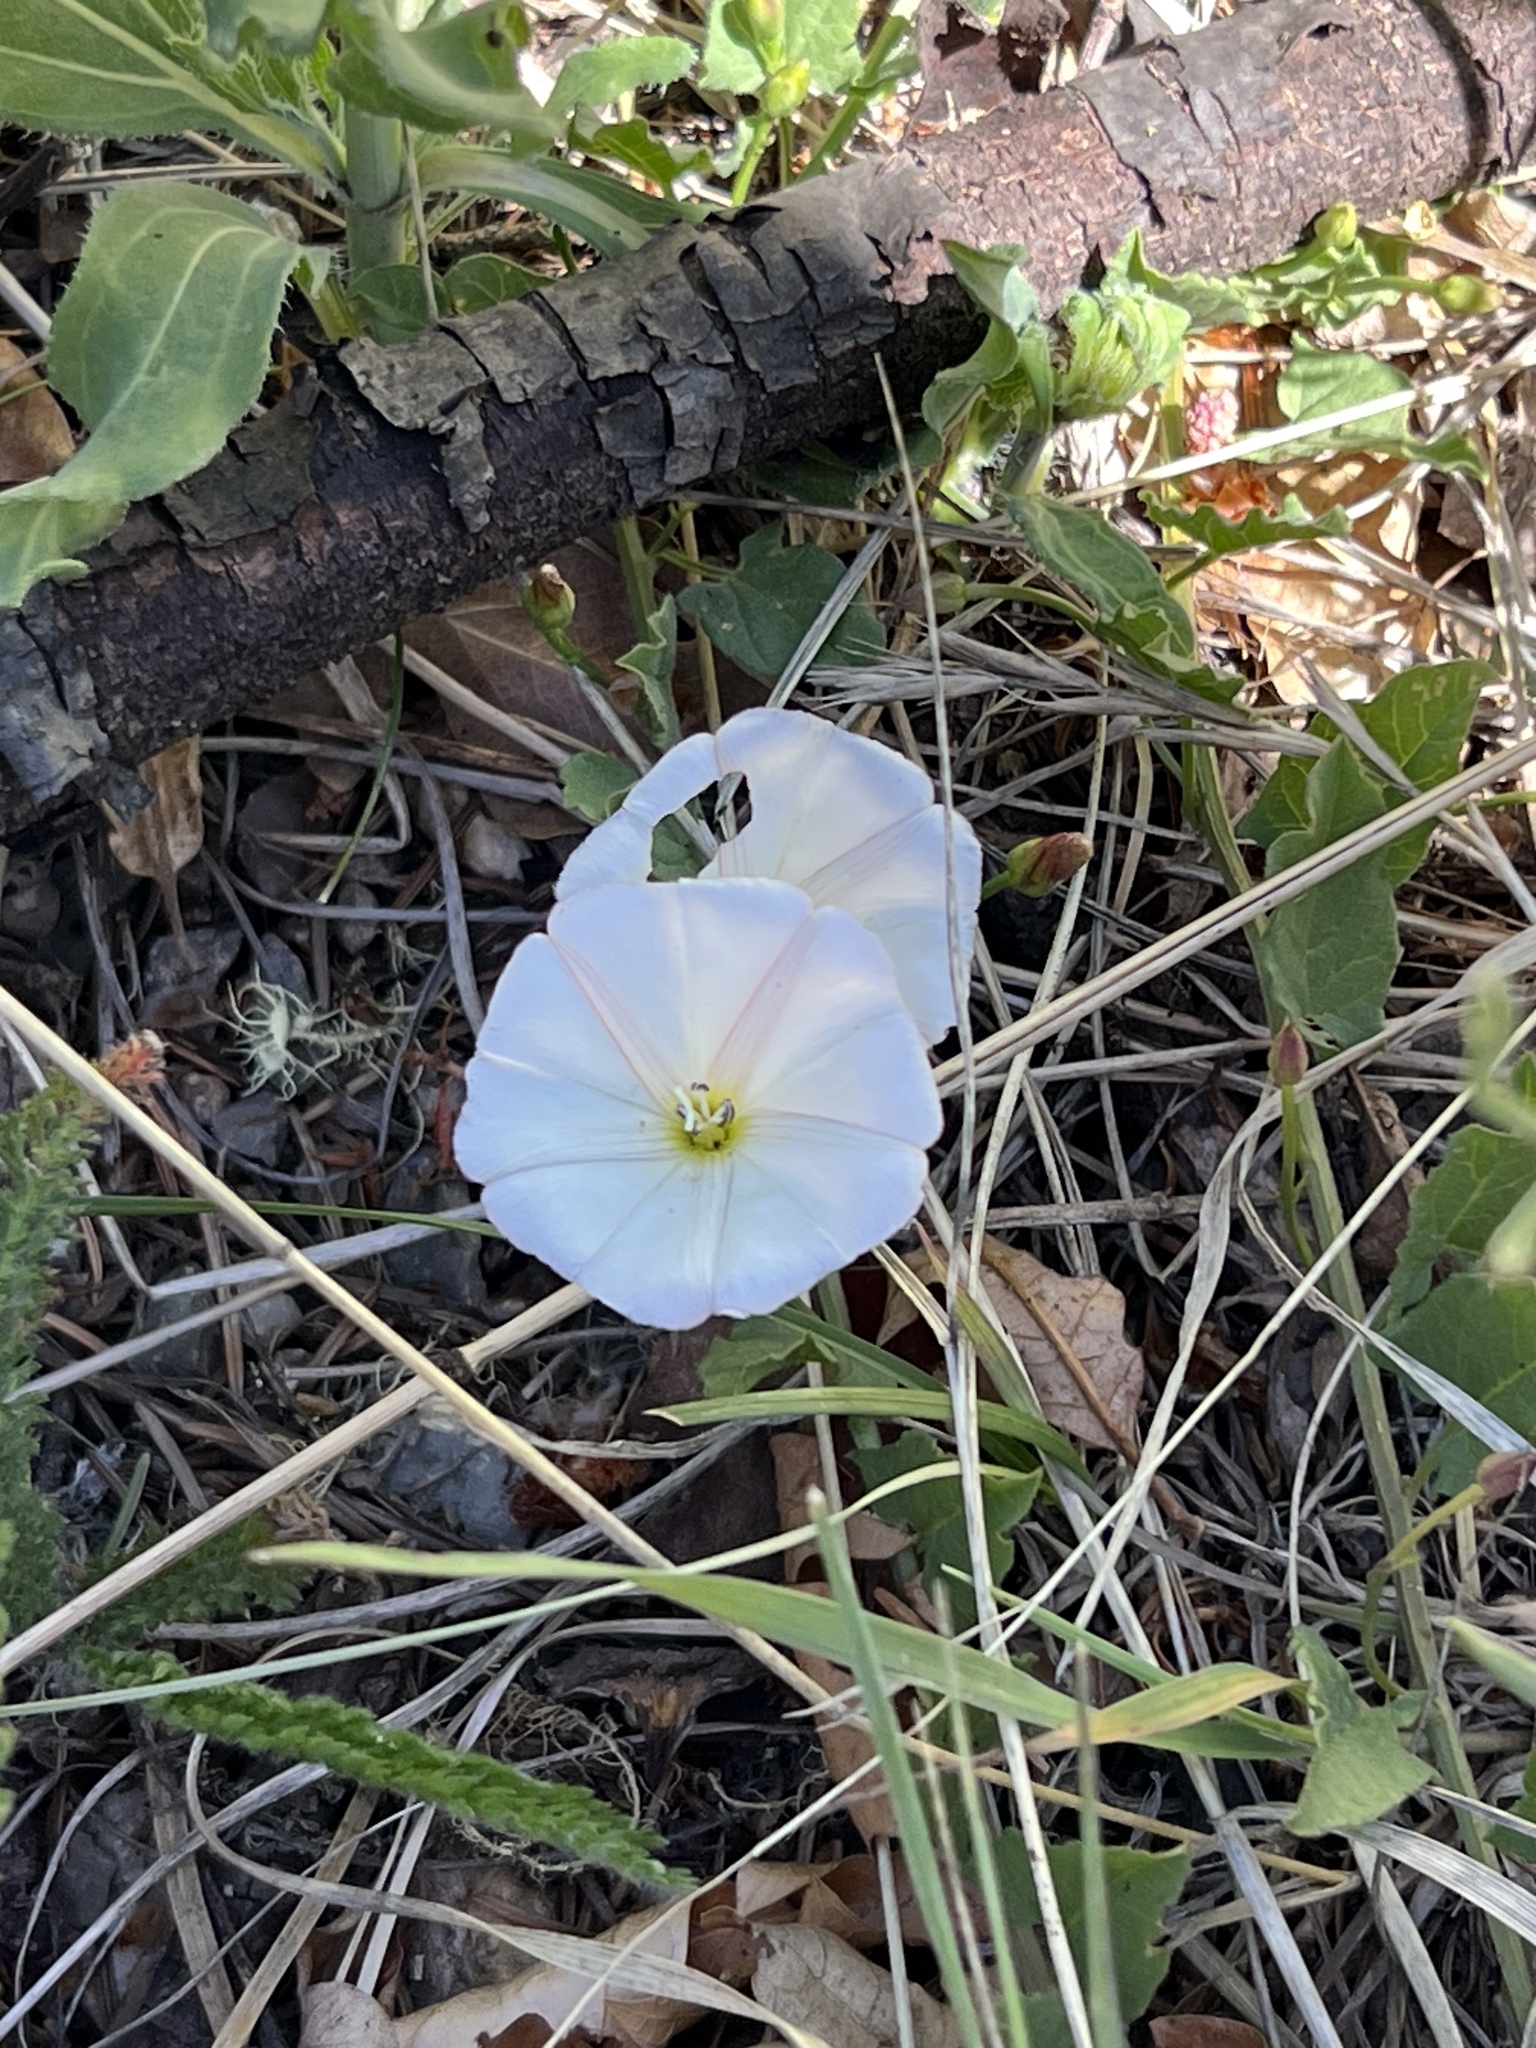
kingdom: Plantae
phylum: Tracheophyta
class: Magnoliopsida
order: Solanales
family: Convolvulaceae
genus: Convolvulus
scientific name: Convolvulus arvensis
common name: Field bindweed
